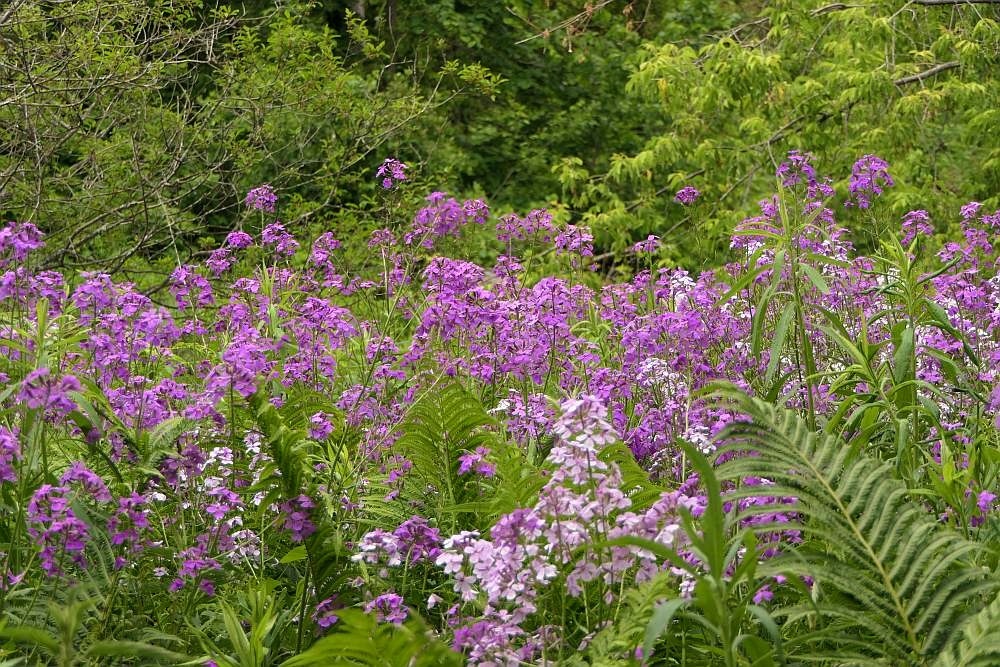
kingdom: Plantae
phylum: Tracheophyta
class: Magnoliopsida
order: Brassicales
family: Brassicaceae
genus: Hesperis
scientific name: Hesperis matronalis
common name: Dame's-violet
